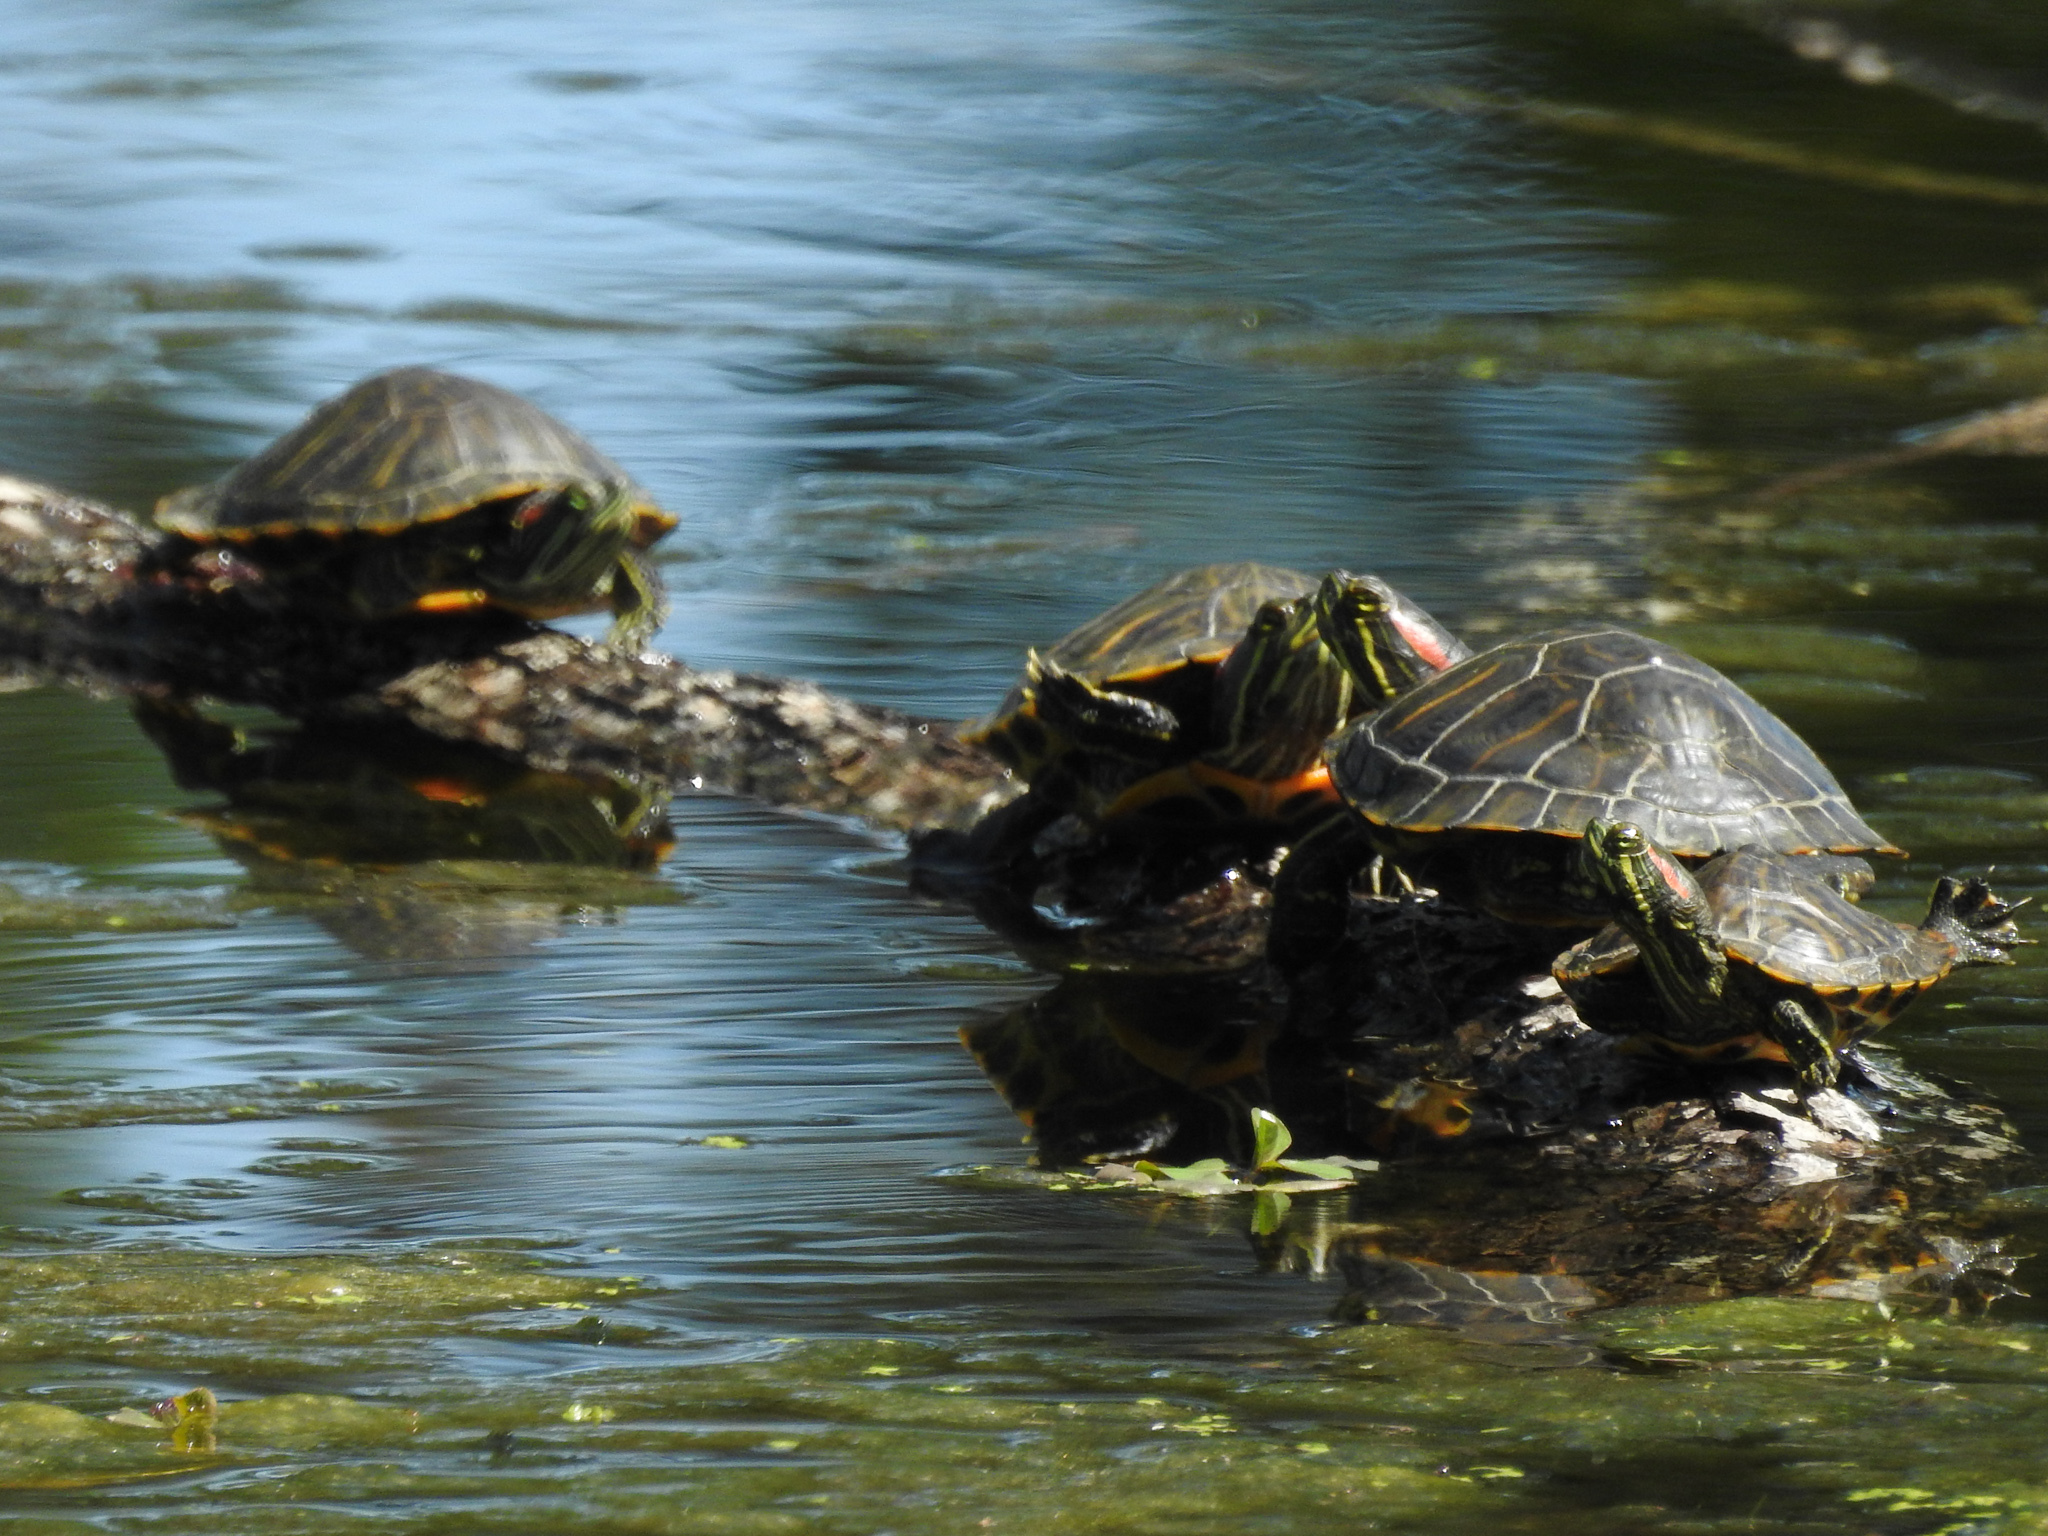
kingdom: Animalia
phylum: Chordata
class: Testudines
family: Emydidae
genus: Trachemys
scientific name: Trachemys scripta
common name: Slider
